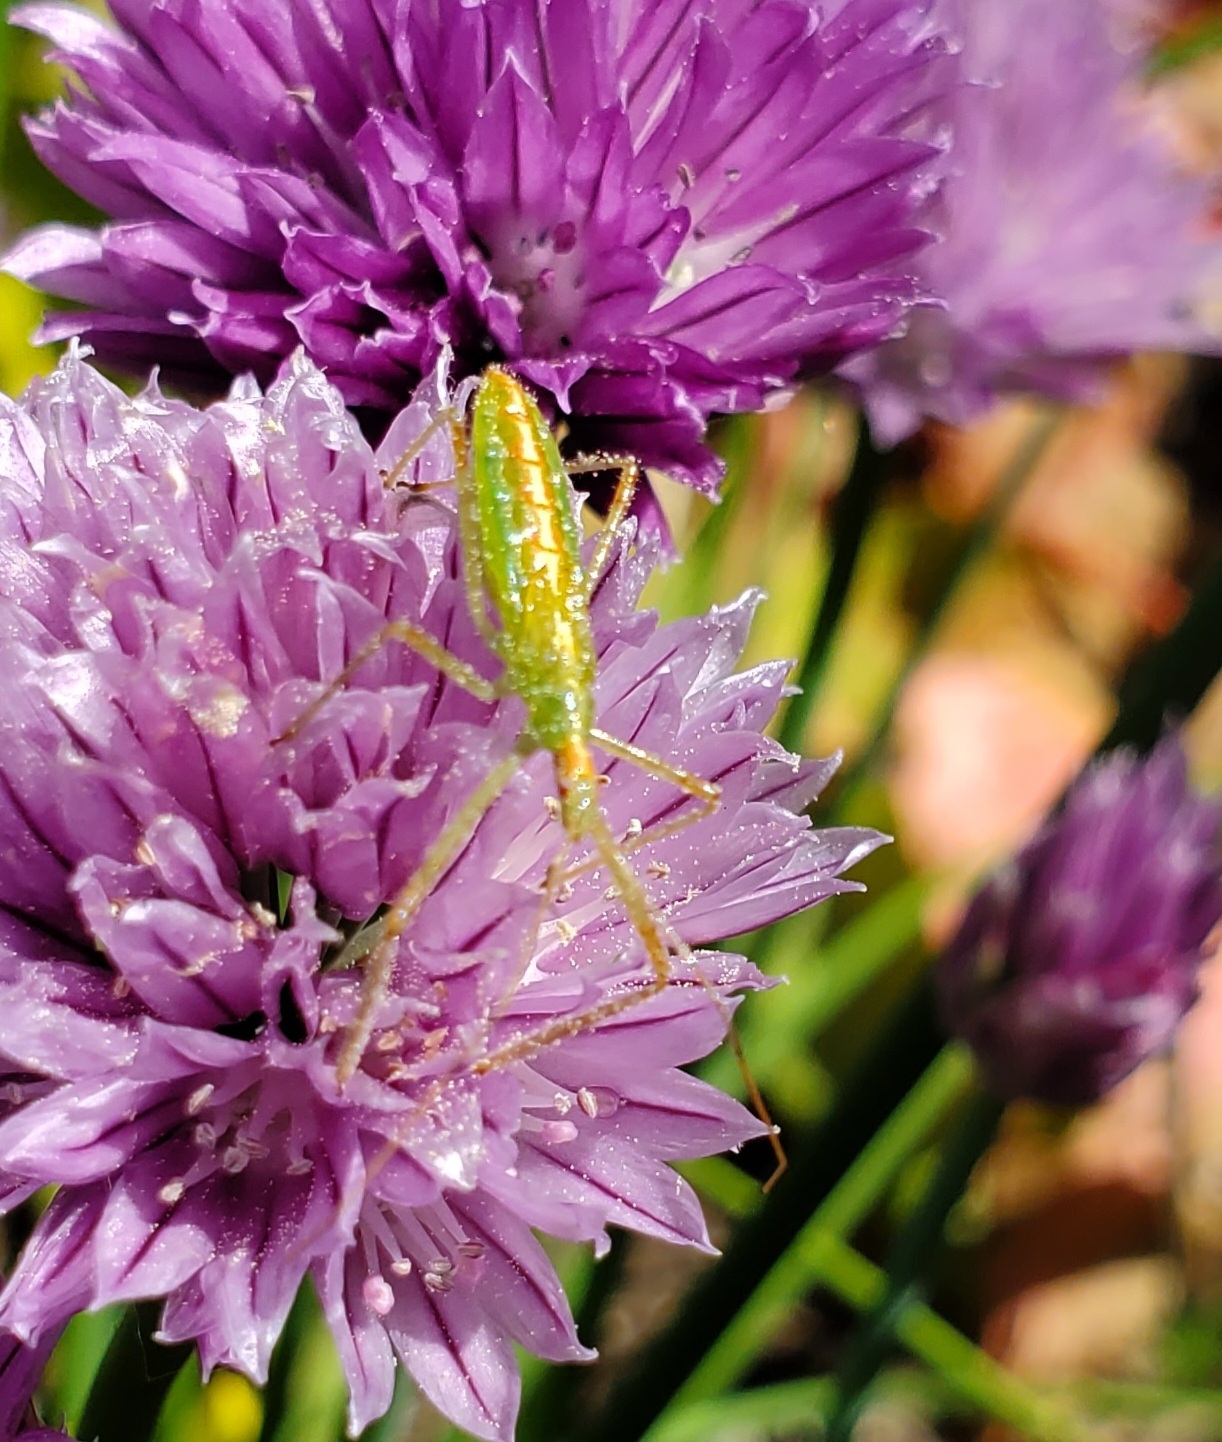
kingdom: Animalia
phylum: Arthropoda
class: Insecta
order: Hemiptera
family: Reduviidae
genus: Zelus
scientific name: Zelus luridus
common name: Pale green assassin bug
